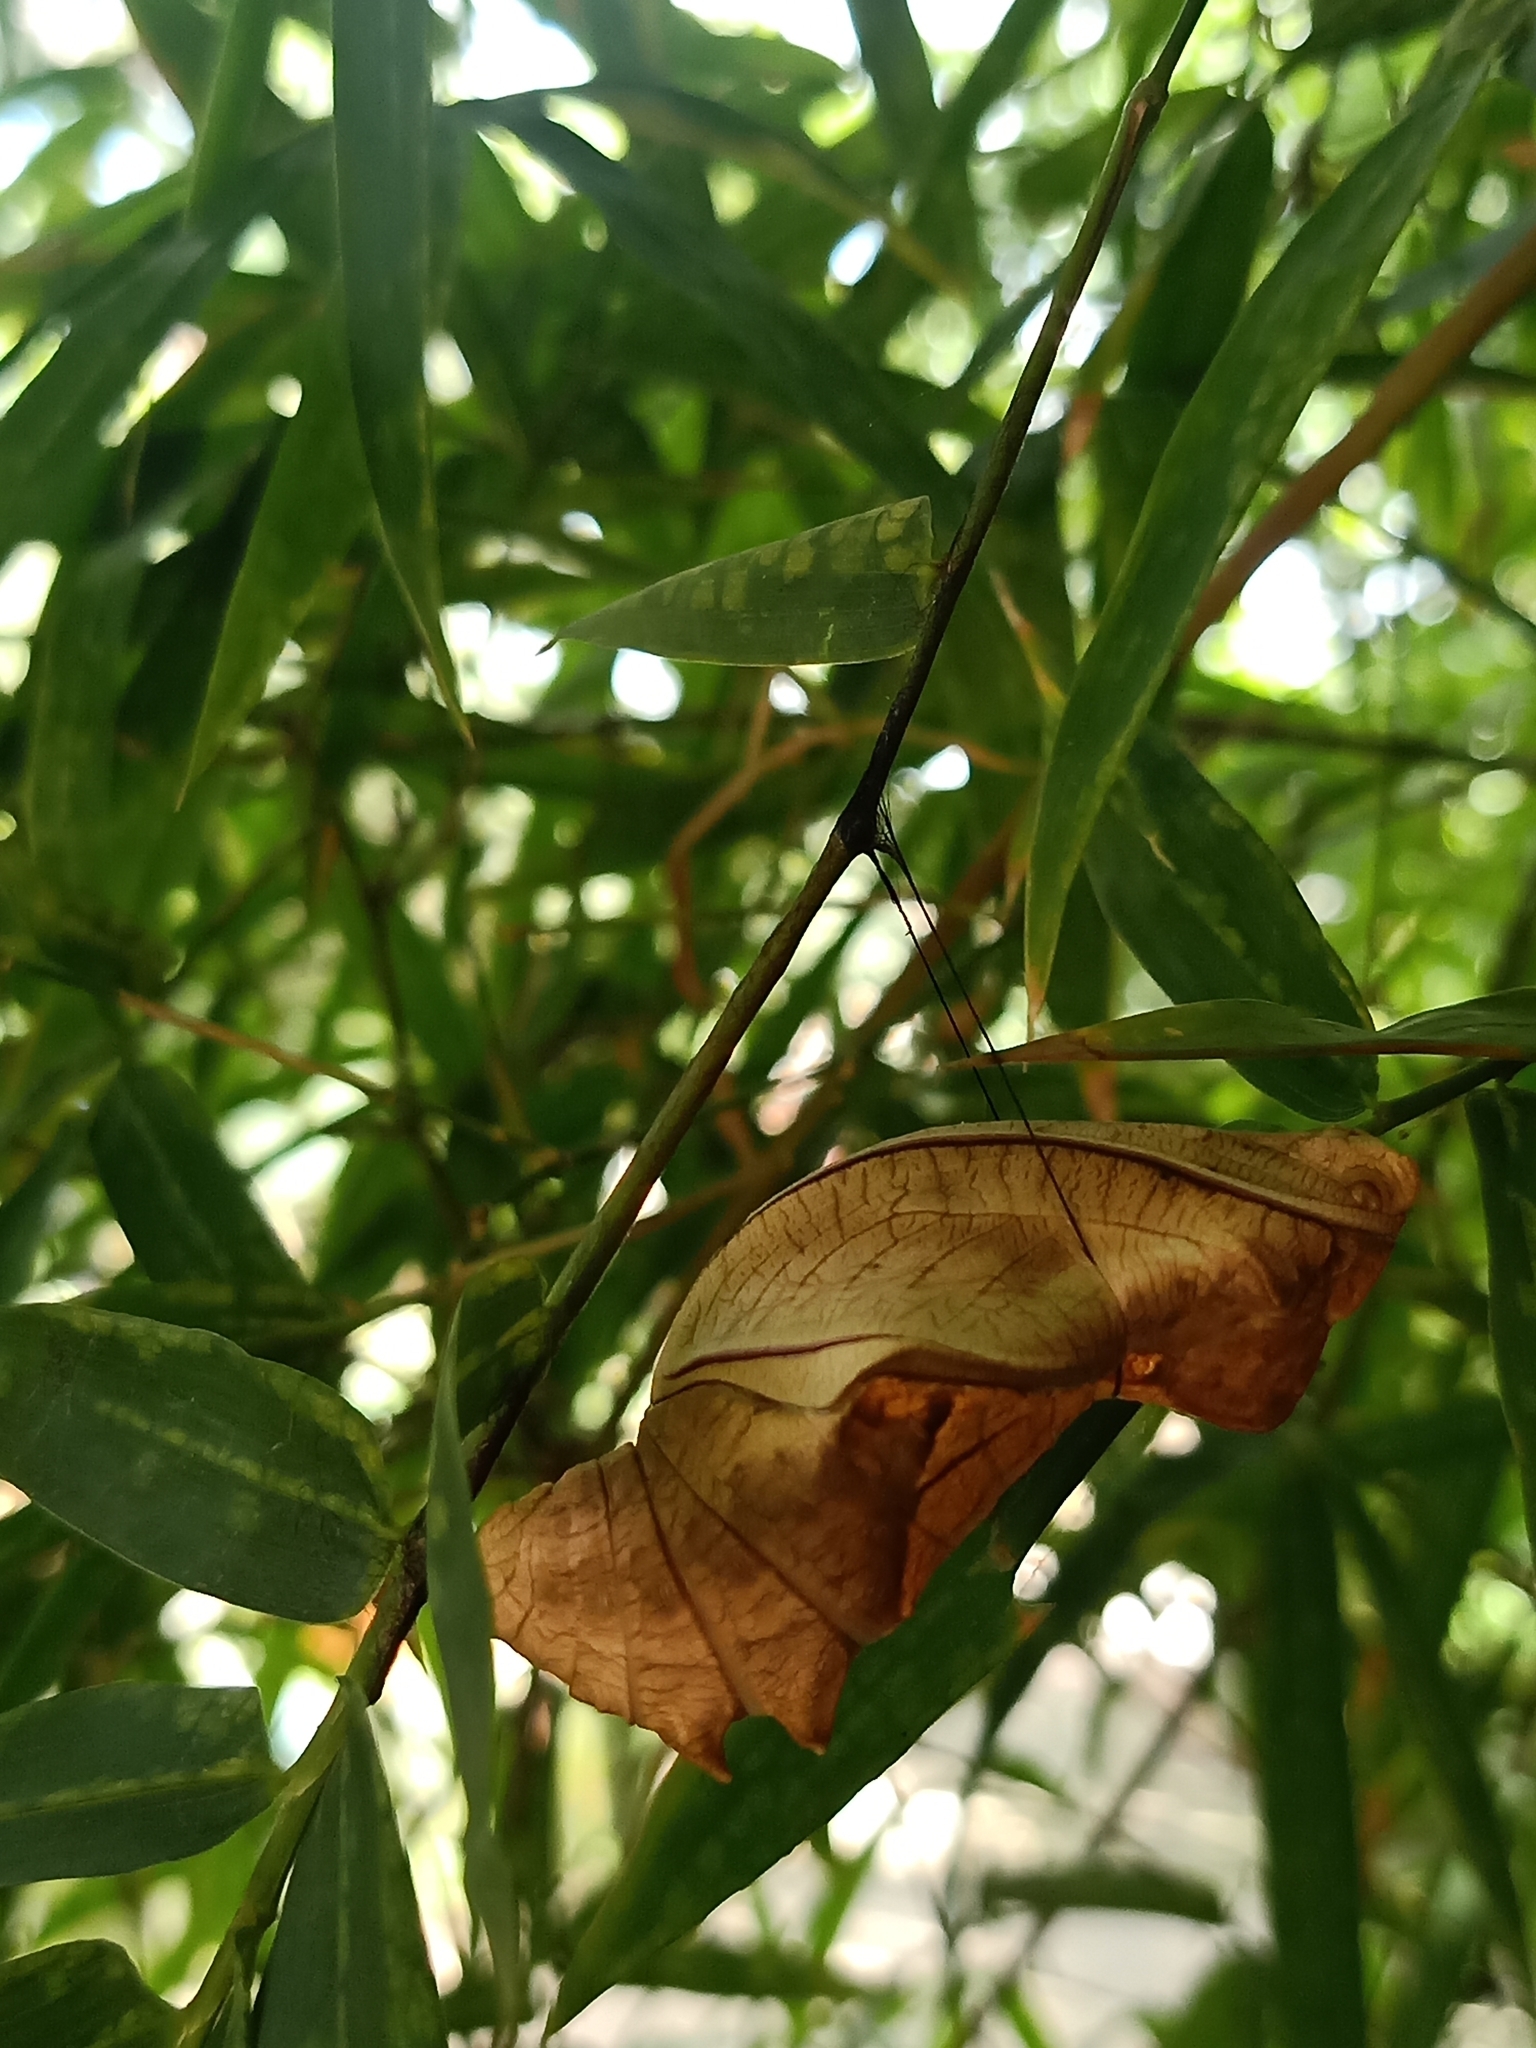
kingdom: Animalia
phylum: Arthropoda
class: Insecta
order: Lepidoptera
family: Papilionidae
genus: Troides
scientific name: Troides minos
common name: Malabar birdwing
